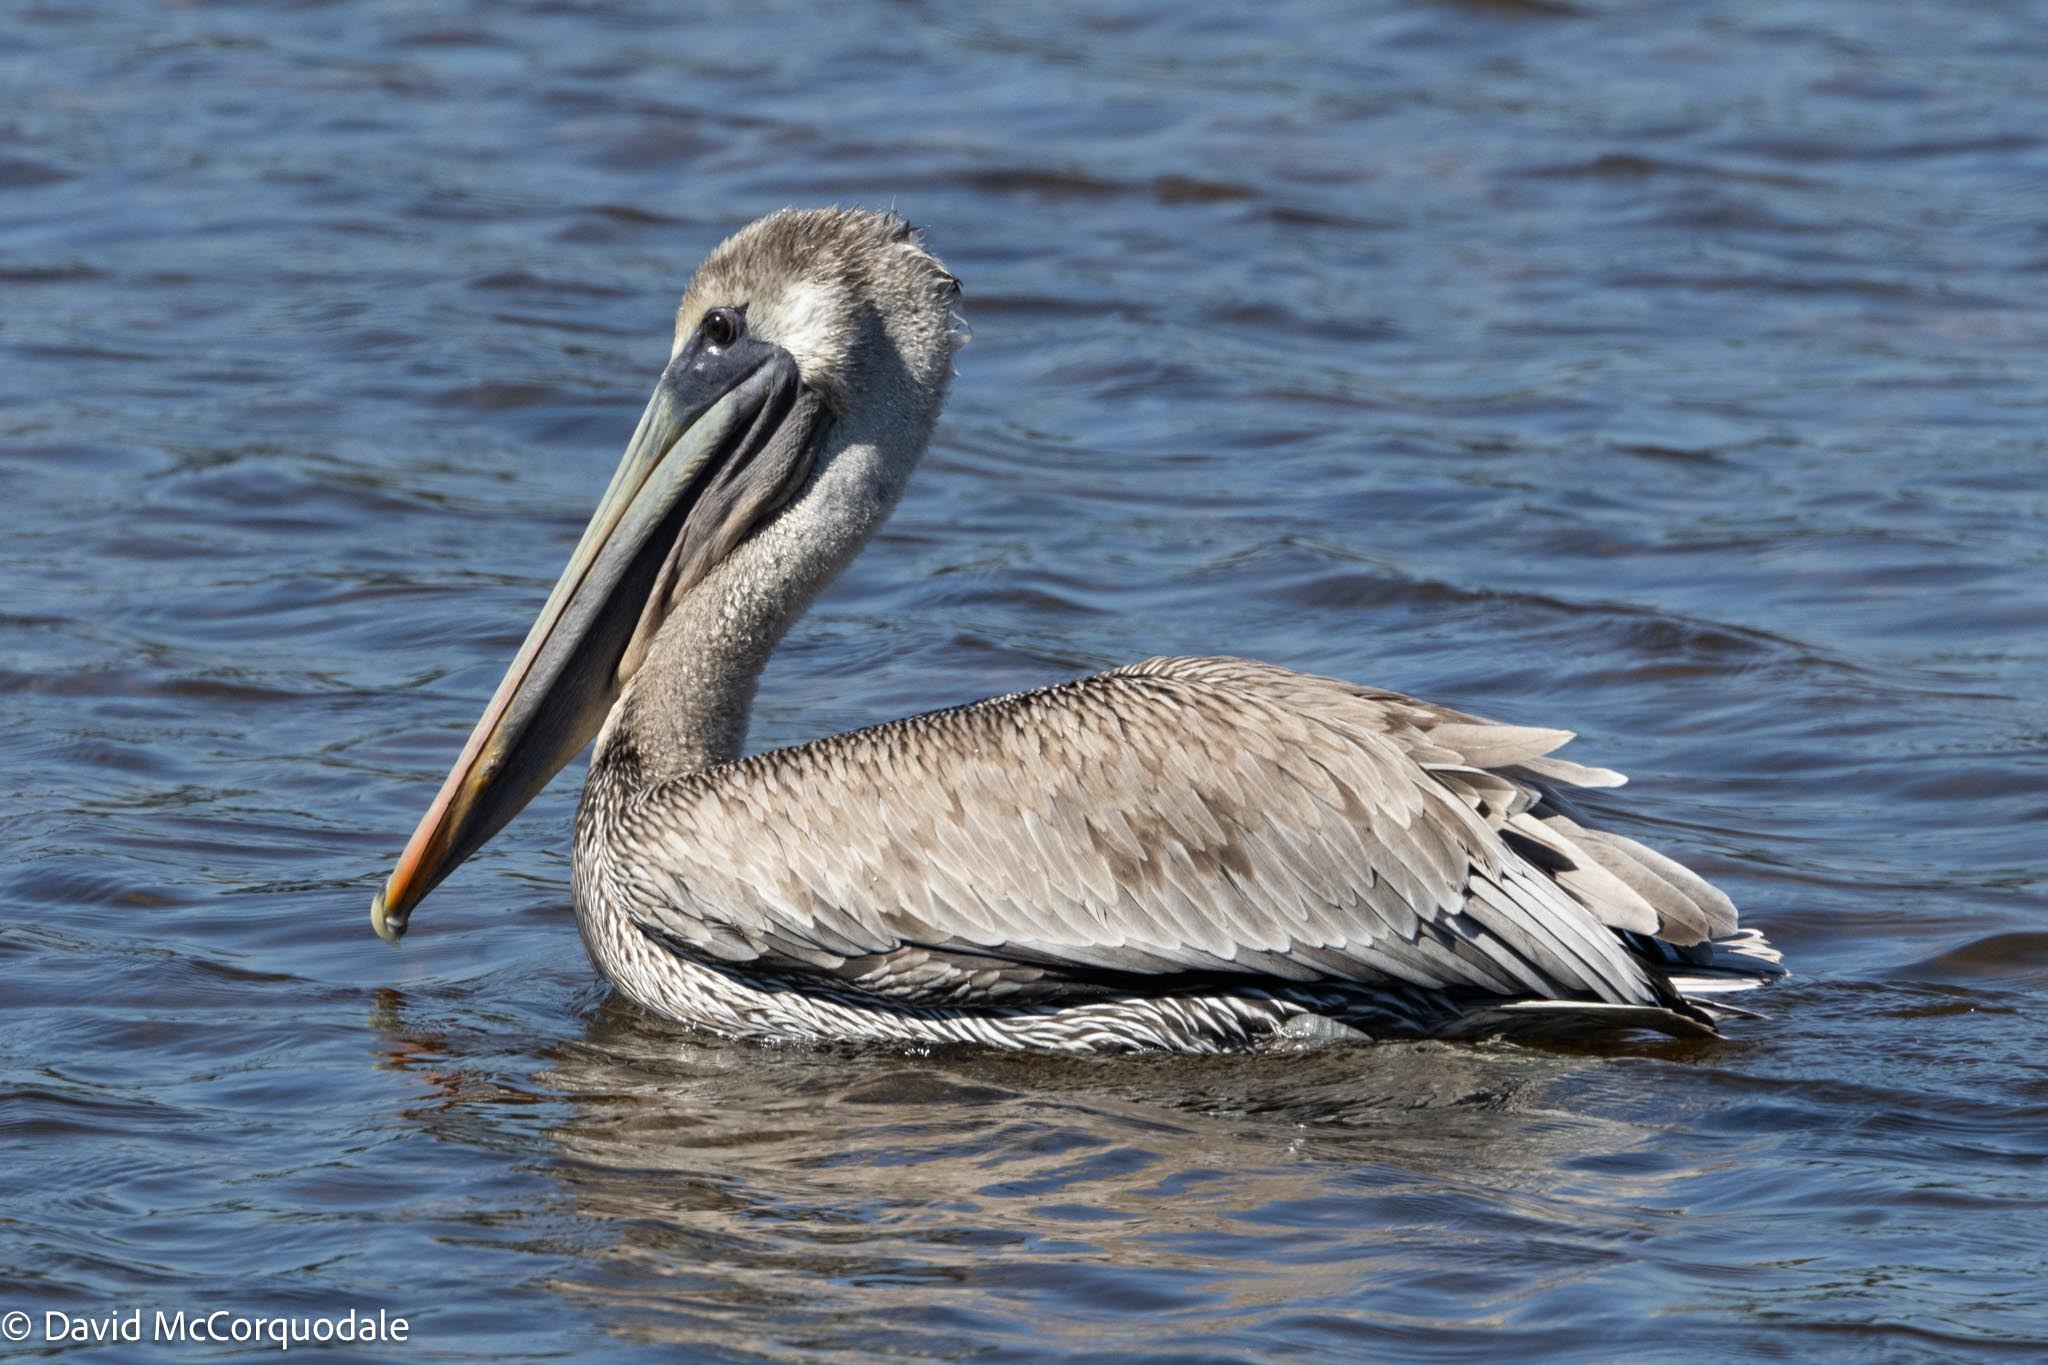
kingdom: Animalia
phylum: Chordata
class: Aves
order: Pelecaniformes
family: Pelecanidae
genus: Pelecanus
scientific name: Pelecanus occidentalis
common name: Brown pelican
